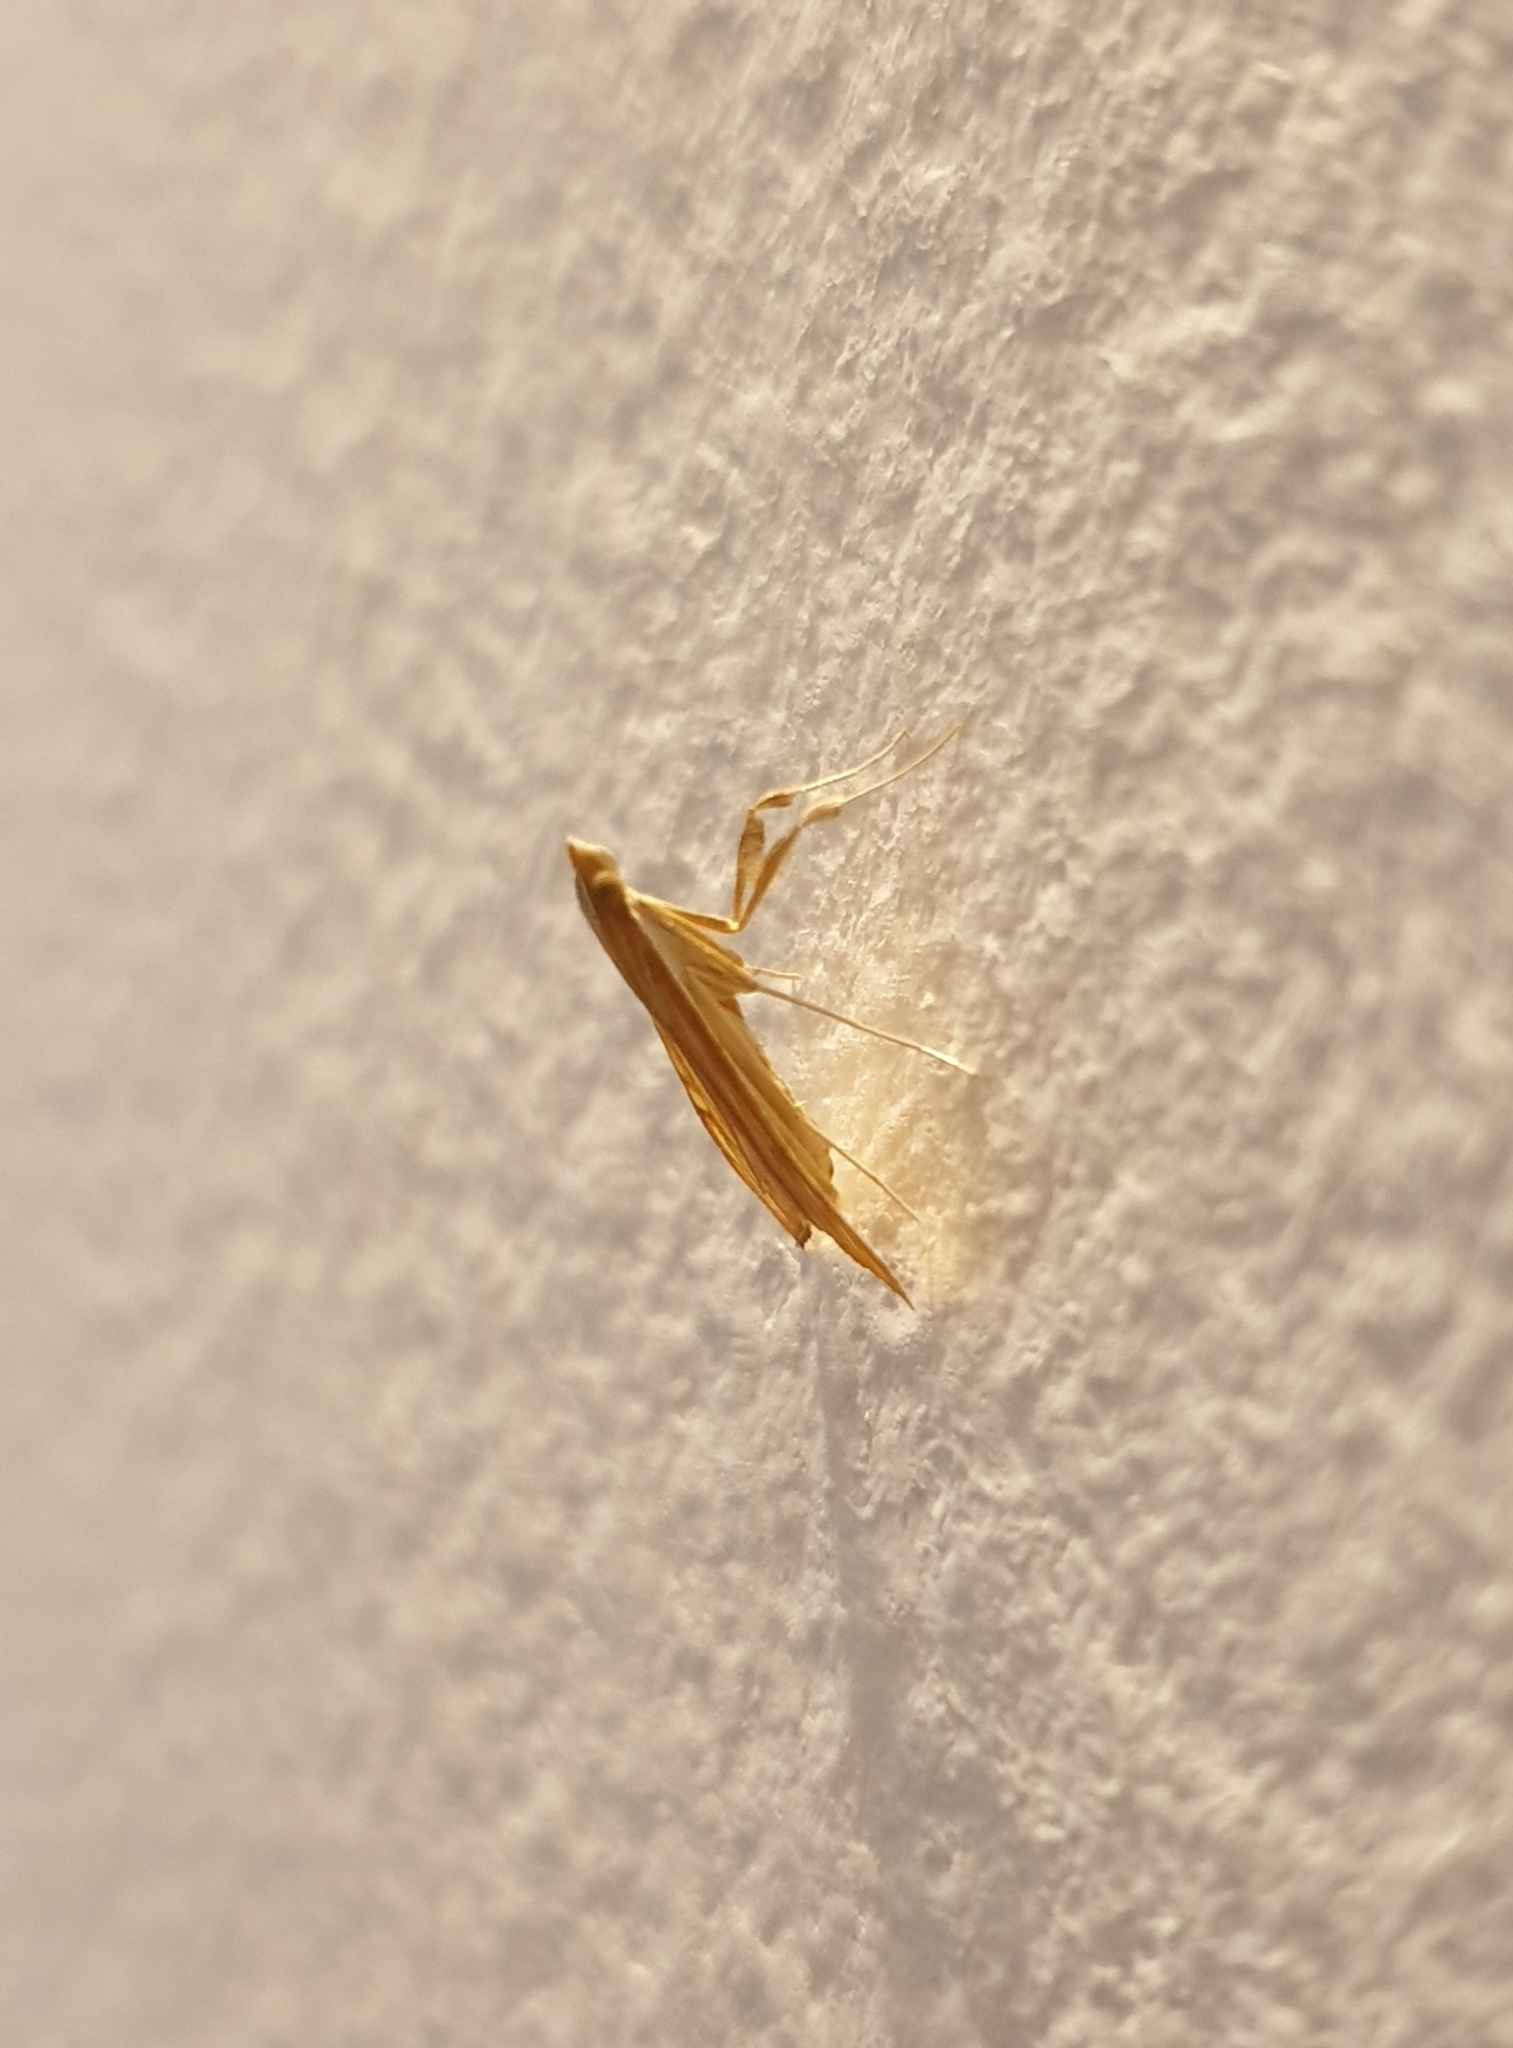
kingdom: Animalia
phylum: Arthropoda
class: Insecta
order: Lepidoptera
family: Crambidae
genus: Antigastra
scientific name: Antigastra catalaunalis
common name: Spanish dot
